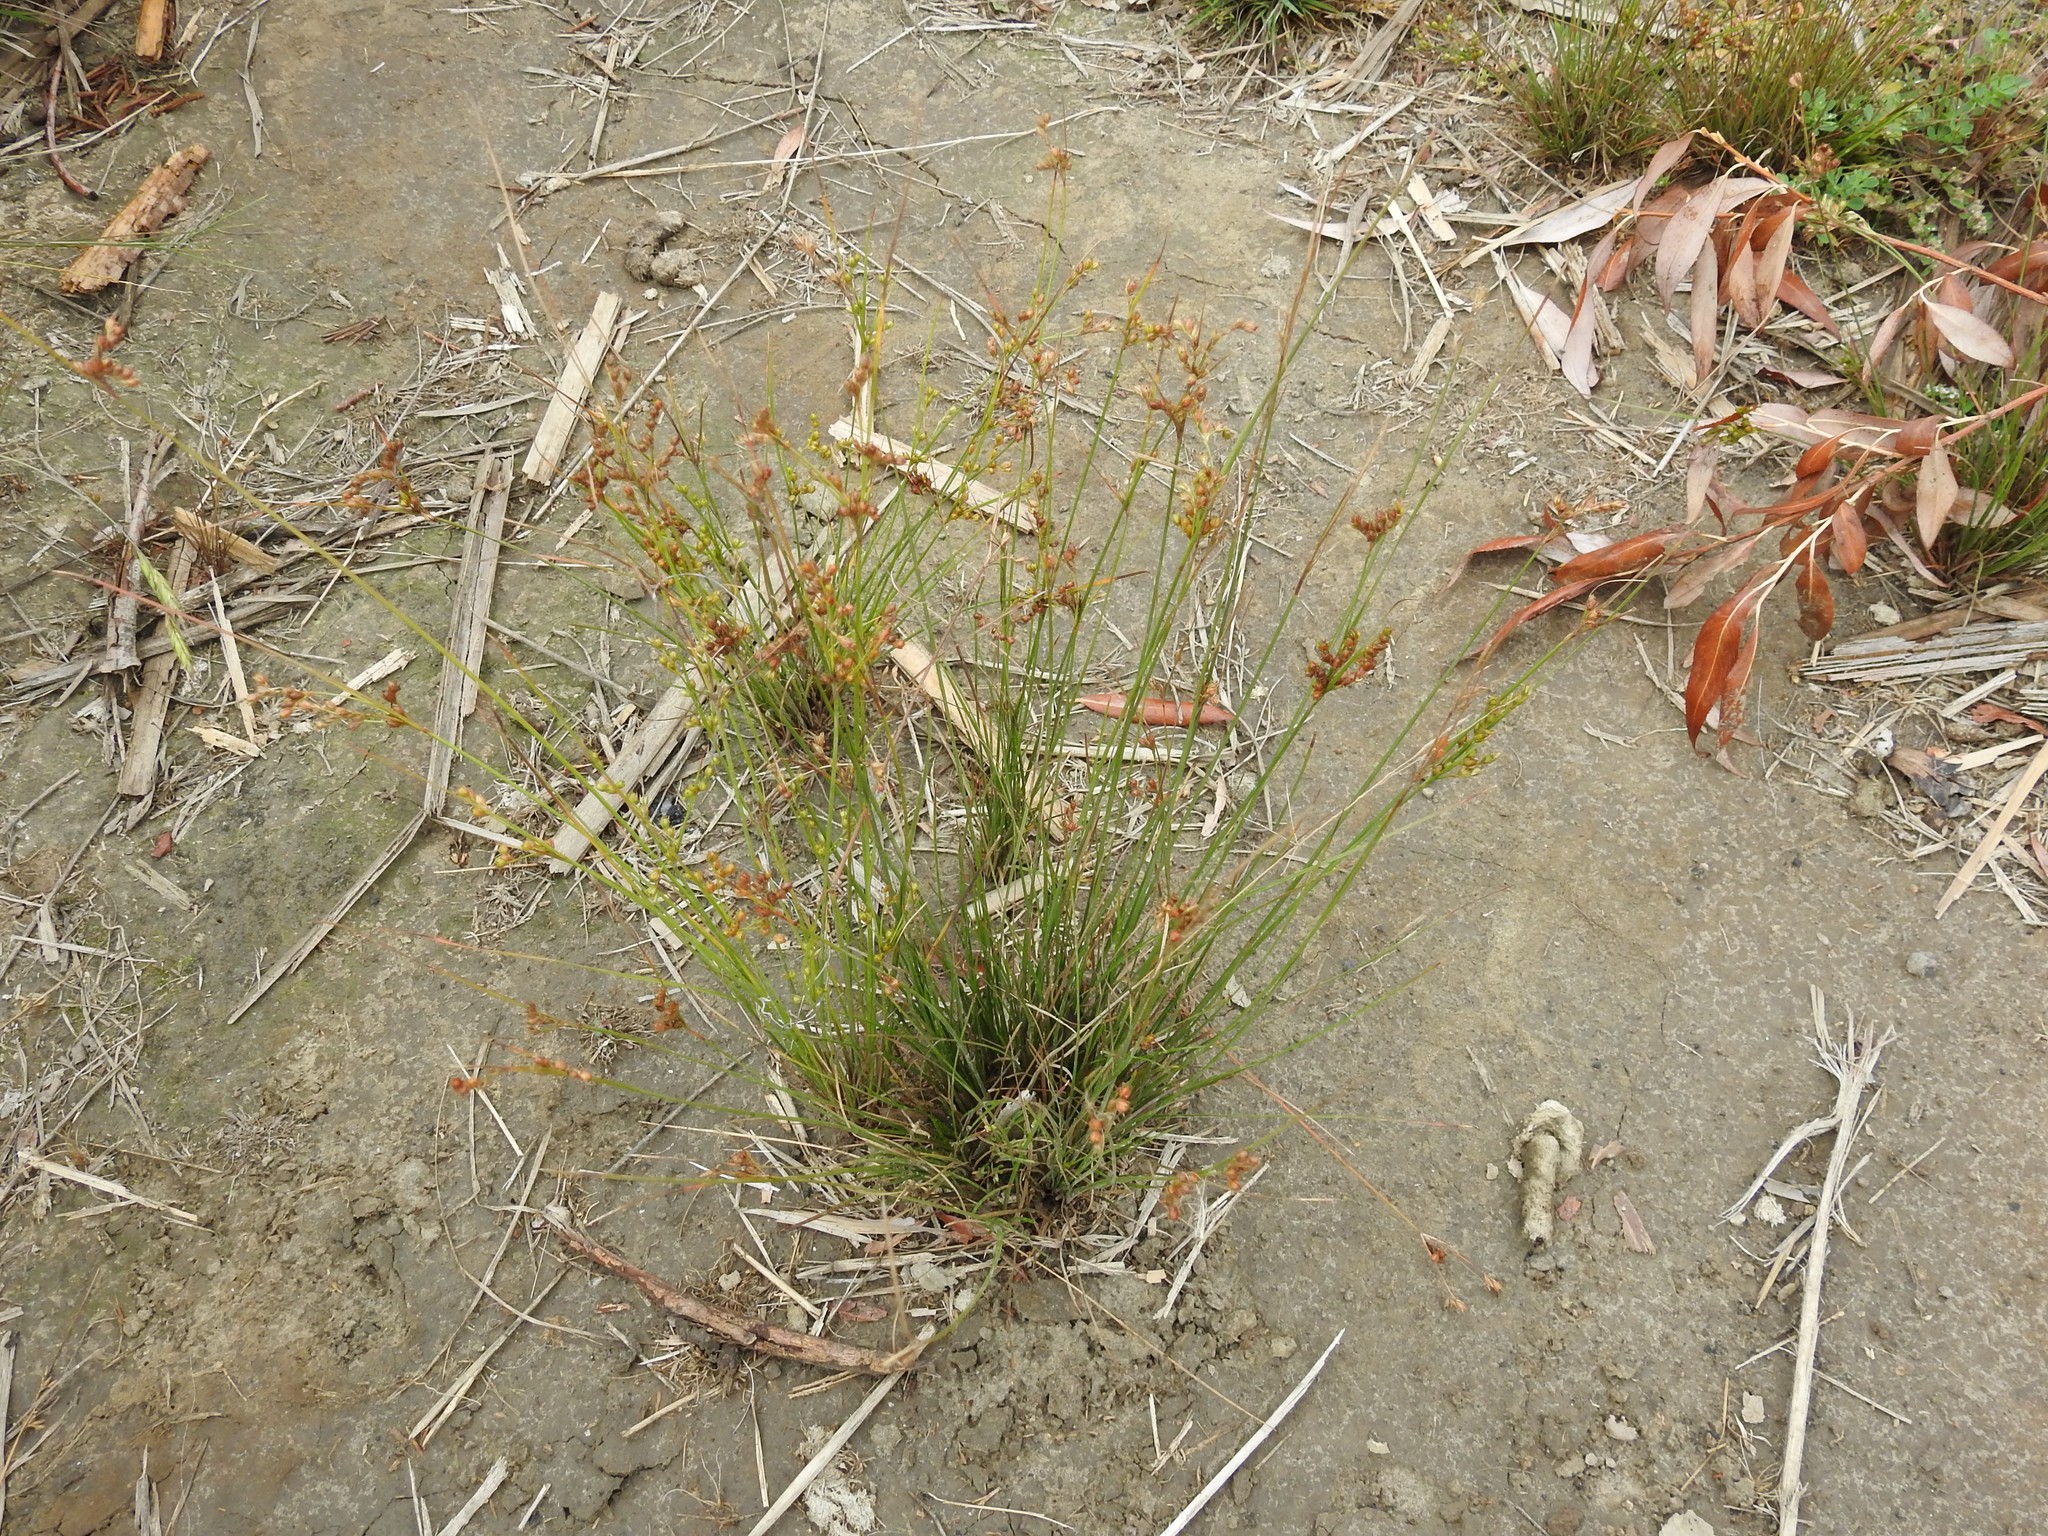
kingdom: Plantae
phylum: Tracheophyta
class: Liliopsida
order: Poales
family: Juncaceae
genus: Juncus
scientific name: Juncus tenuis
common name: Slender rush
